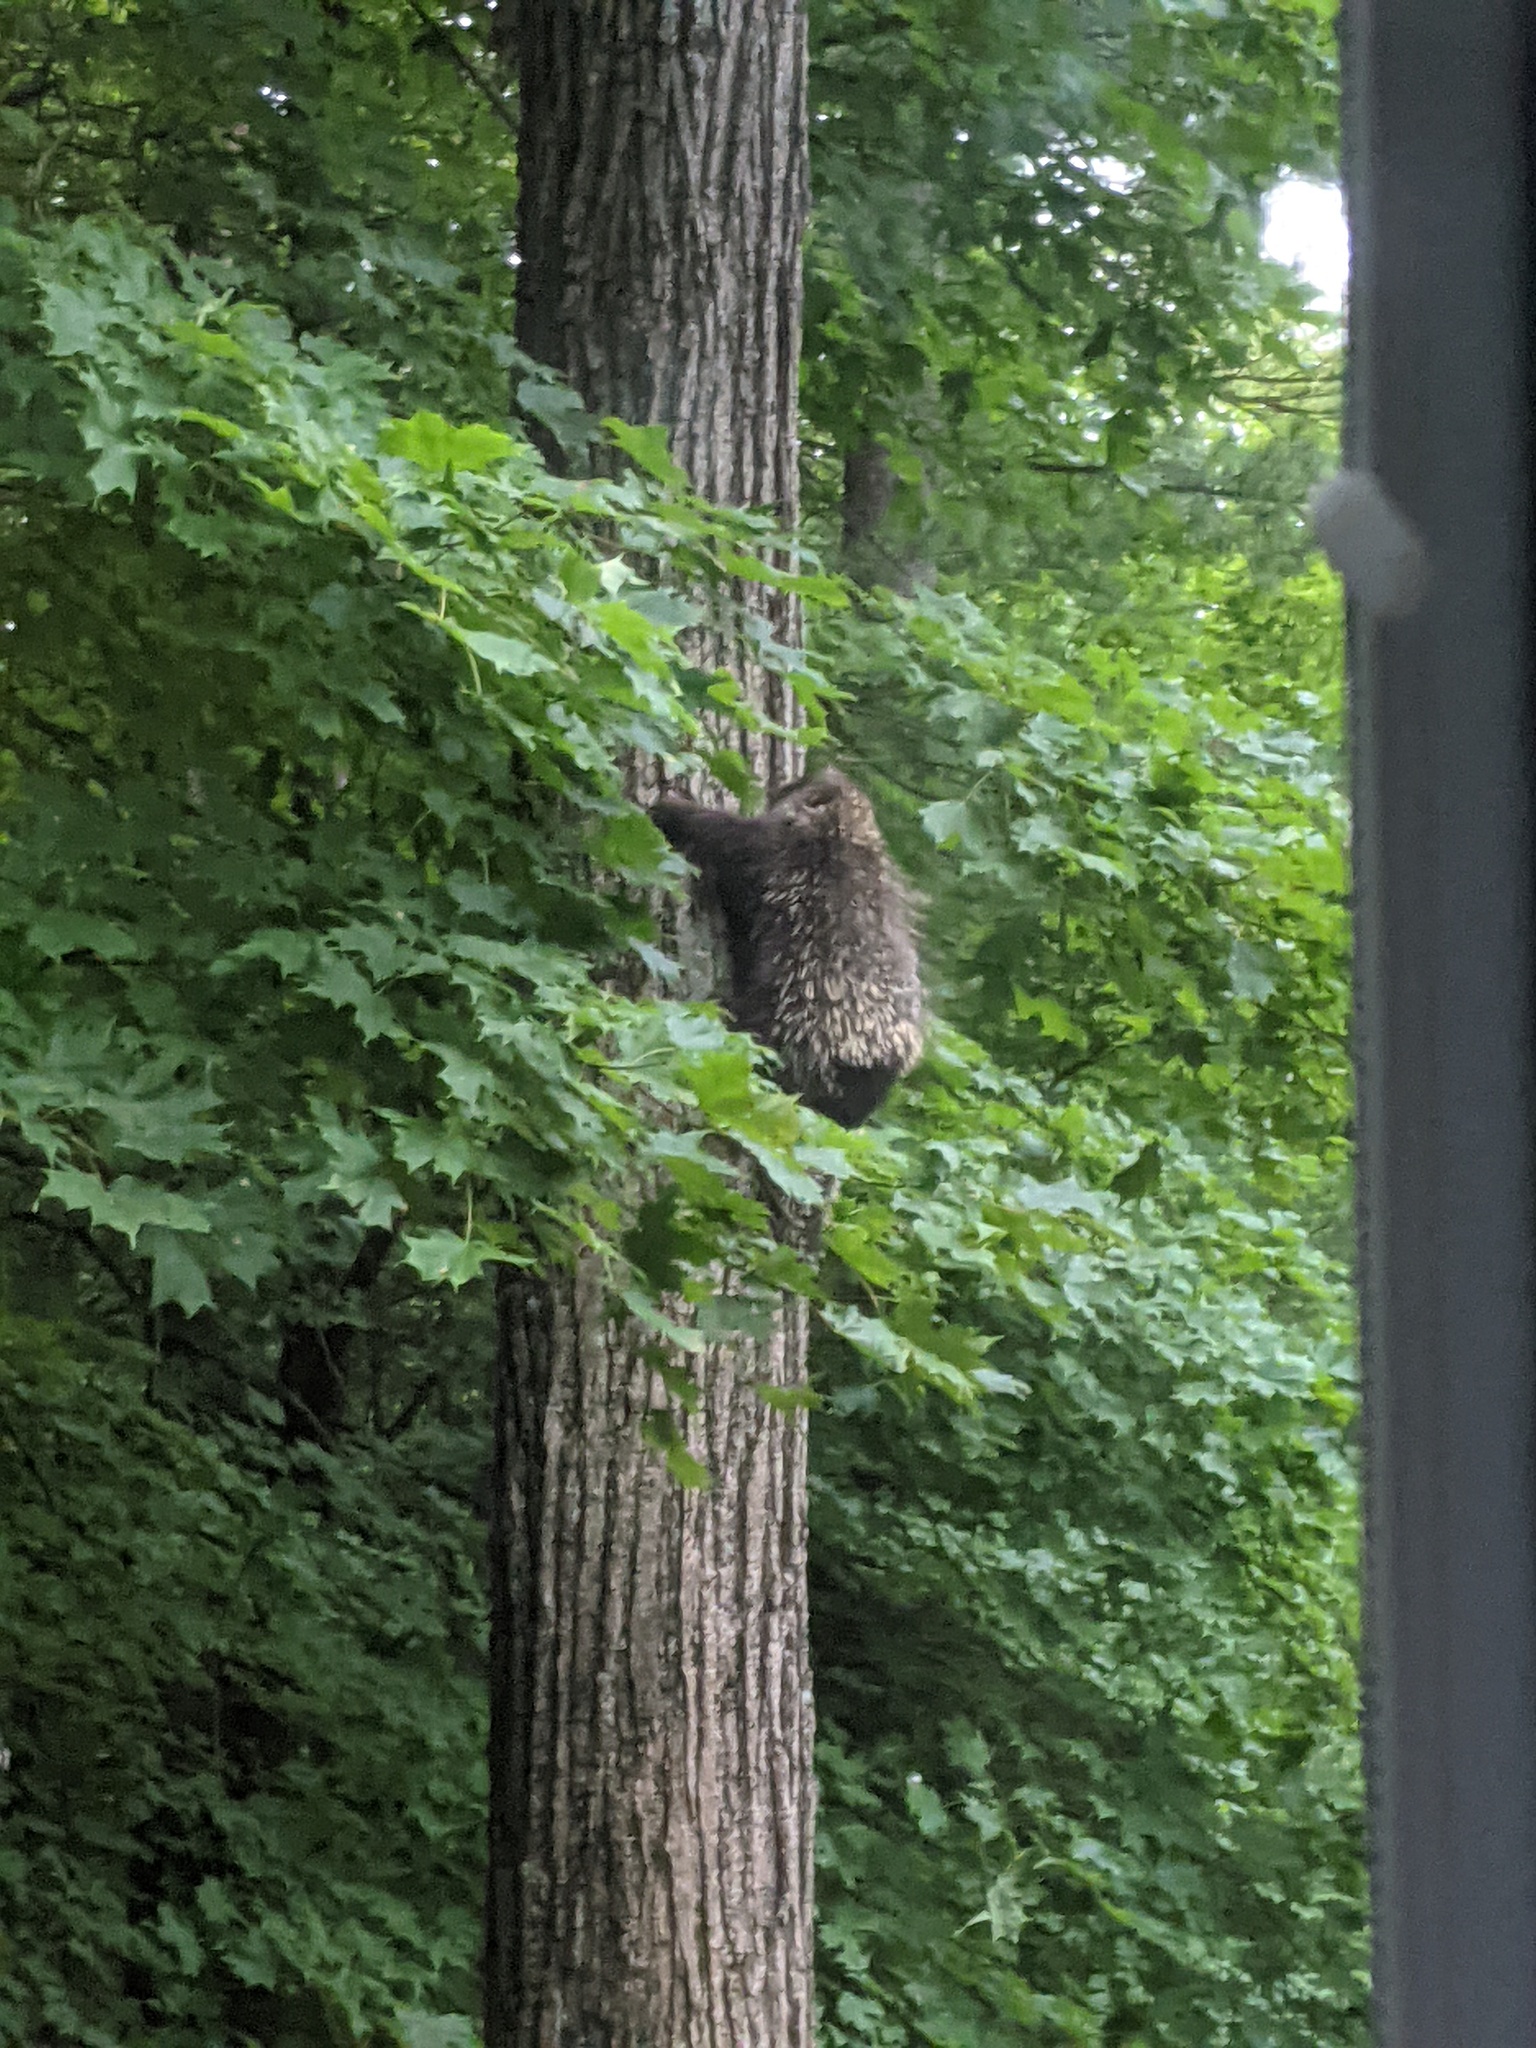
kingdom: Animalia
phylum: Chordata
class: Mammalia
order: Rodentia
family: Erethizontidae
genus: Erethizon
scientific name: Erethizon dorsatus
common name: North american porcupine
